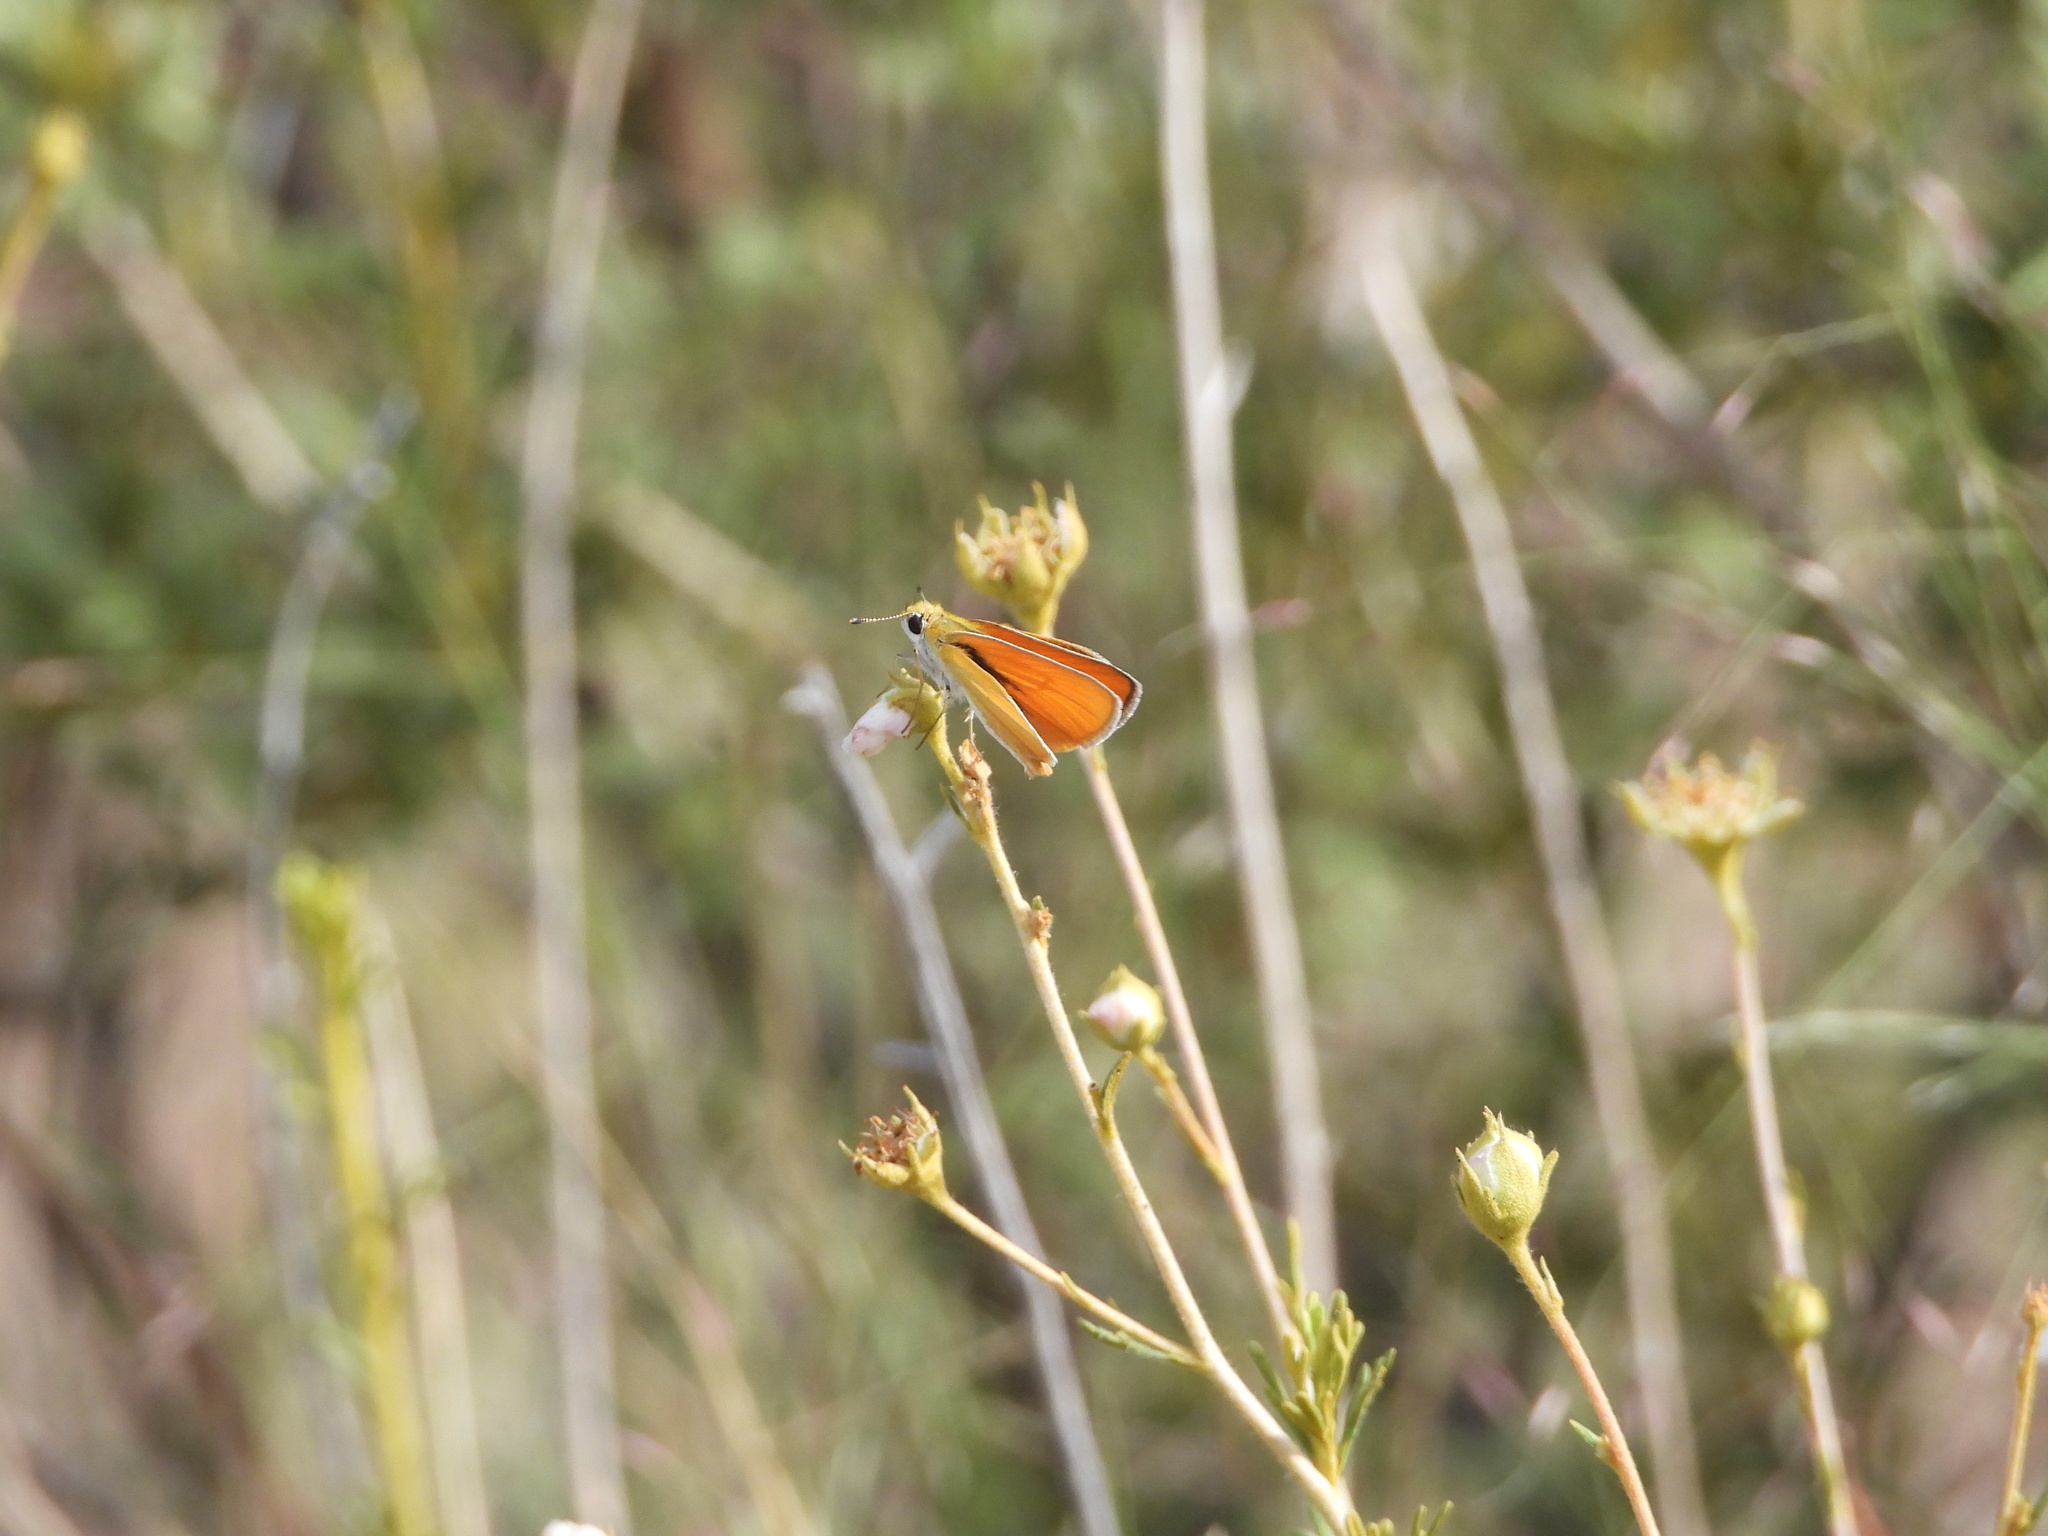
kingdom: Animalia
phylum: Arthropoda
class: Insecta
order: Lepidoptera
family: Hesperiidae
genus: Copaeodes
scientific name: Copaeodes aurantiaca
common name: Orange skipperling
